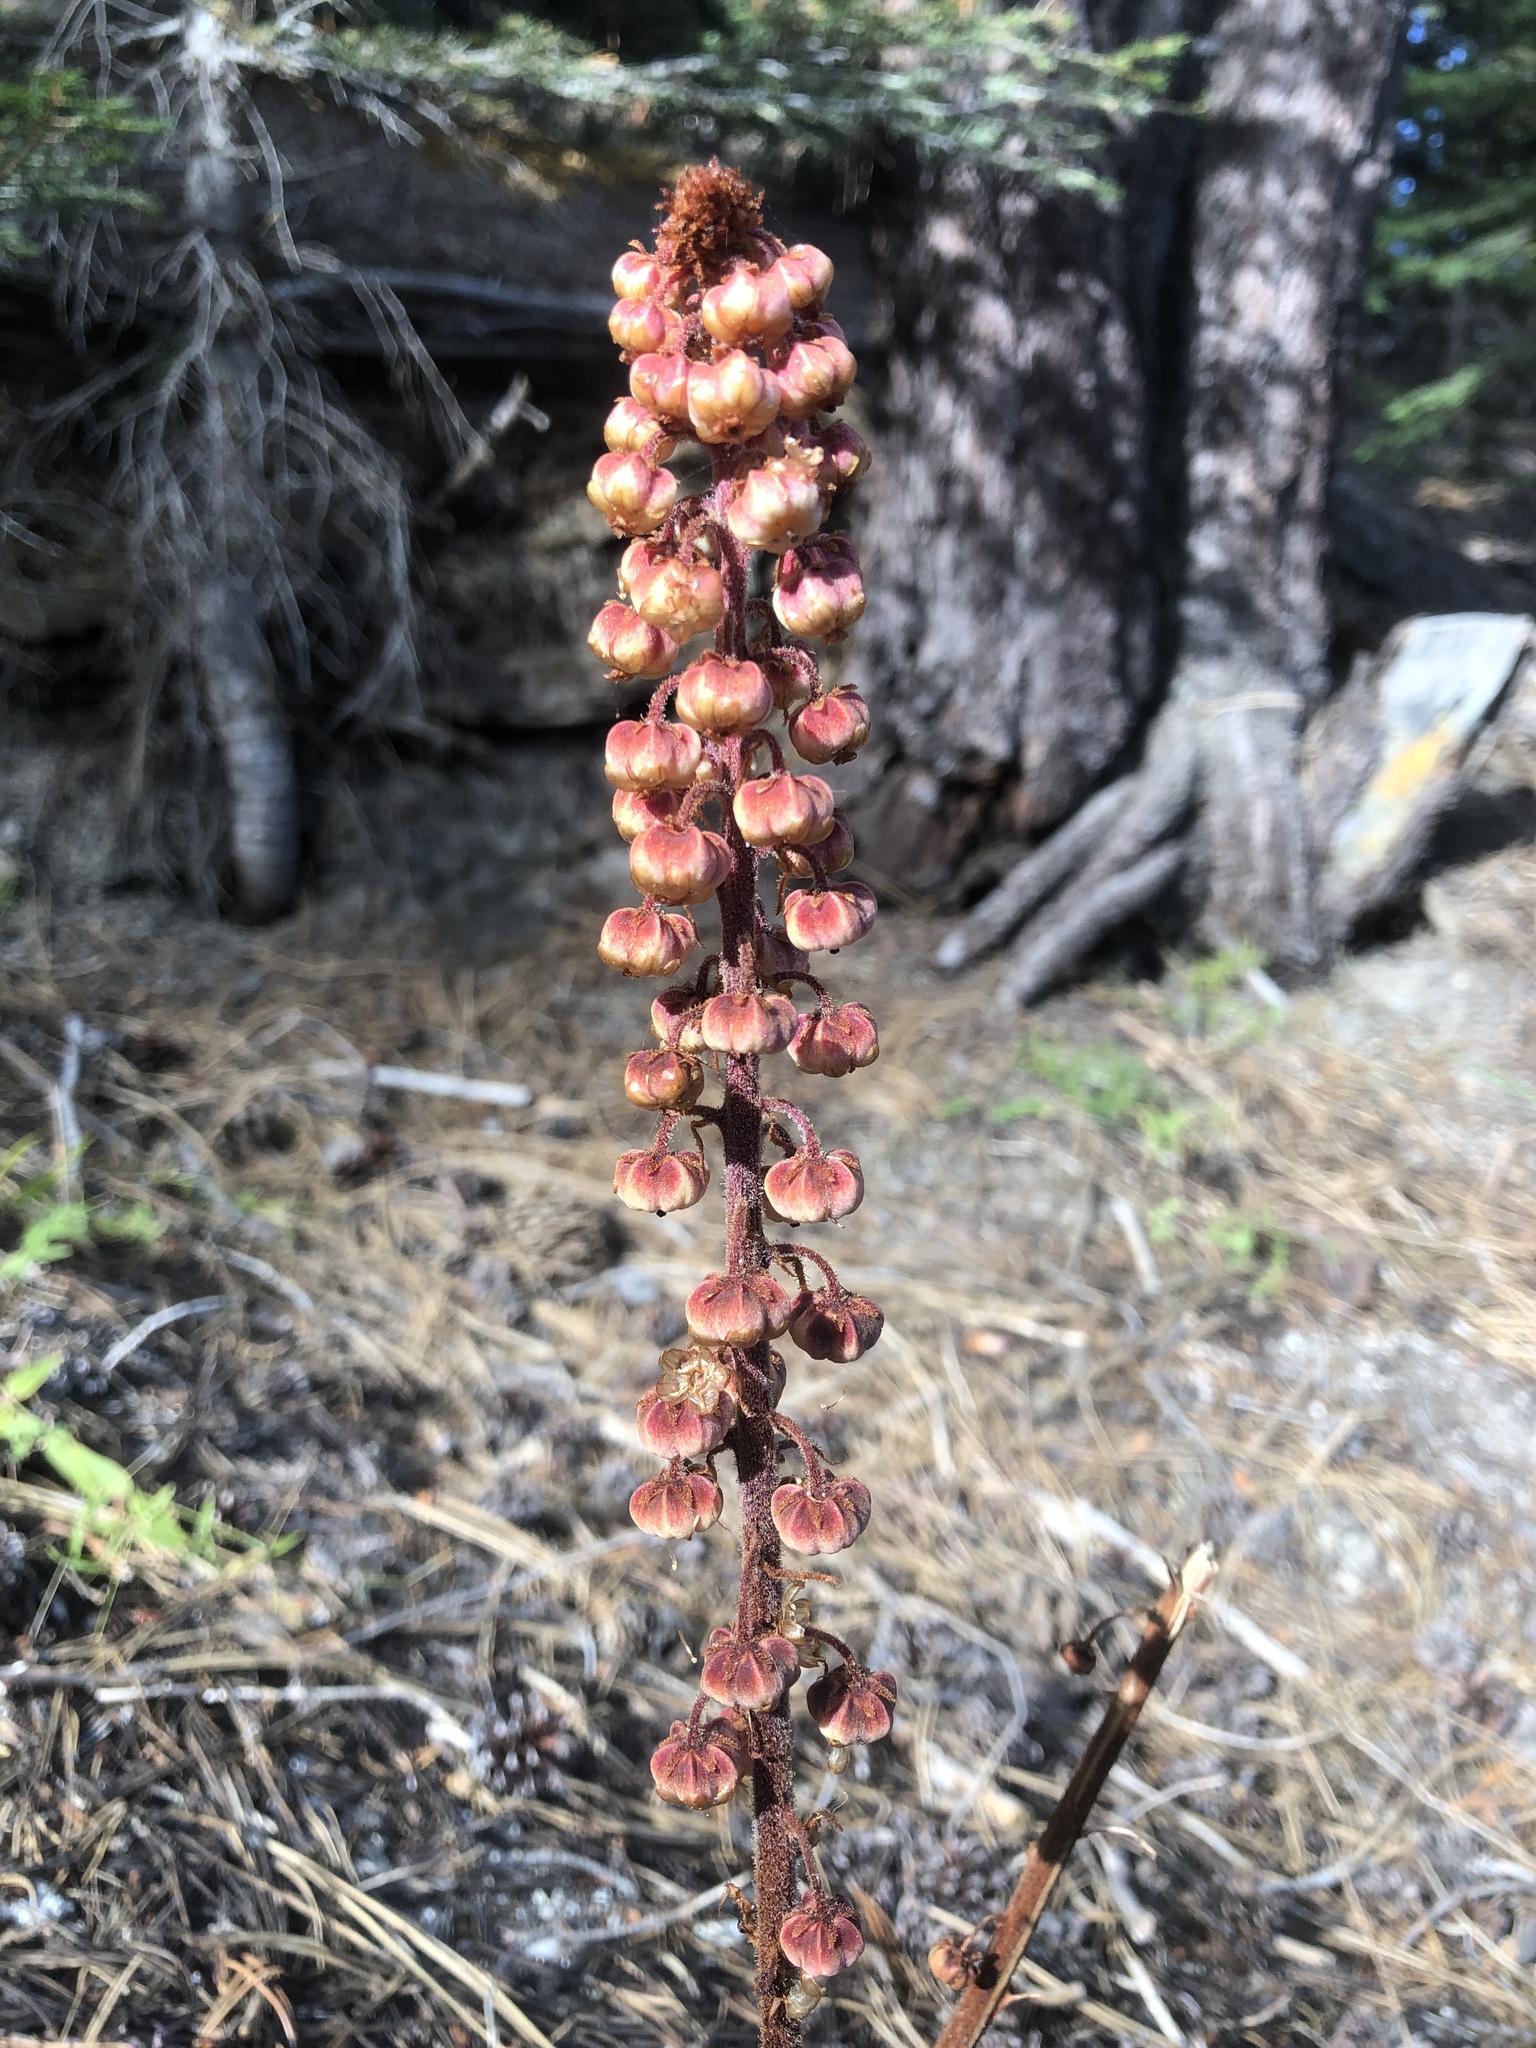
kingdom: Plantae
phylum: Tracheophyta
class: Magnoliopsida
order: Ericales
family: Ericaceae
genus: Pterospora
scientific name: Pterospora andromedea
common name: Giant bird's-nest
